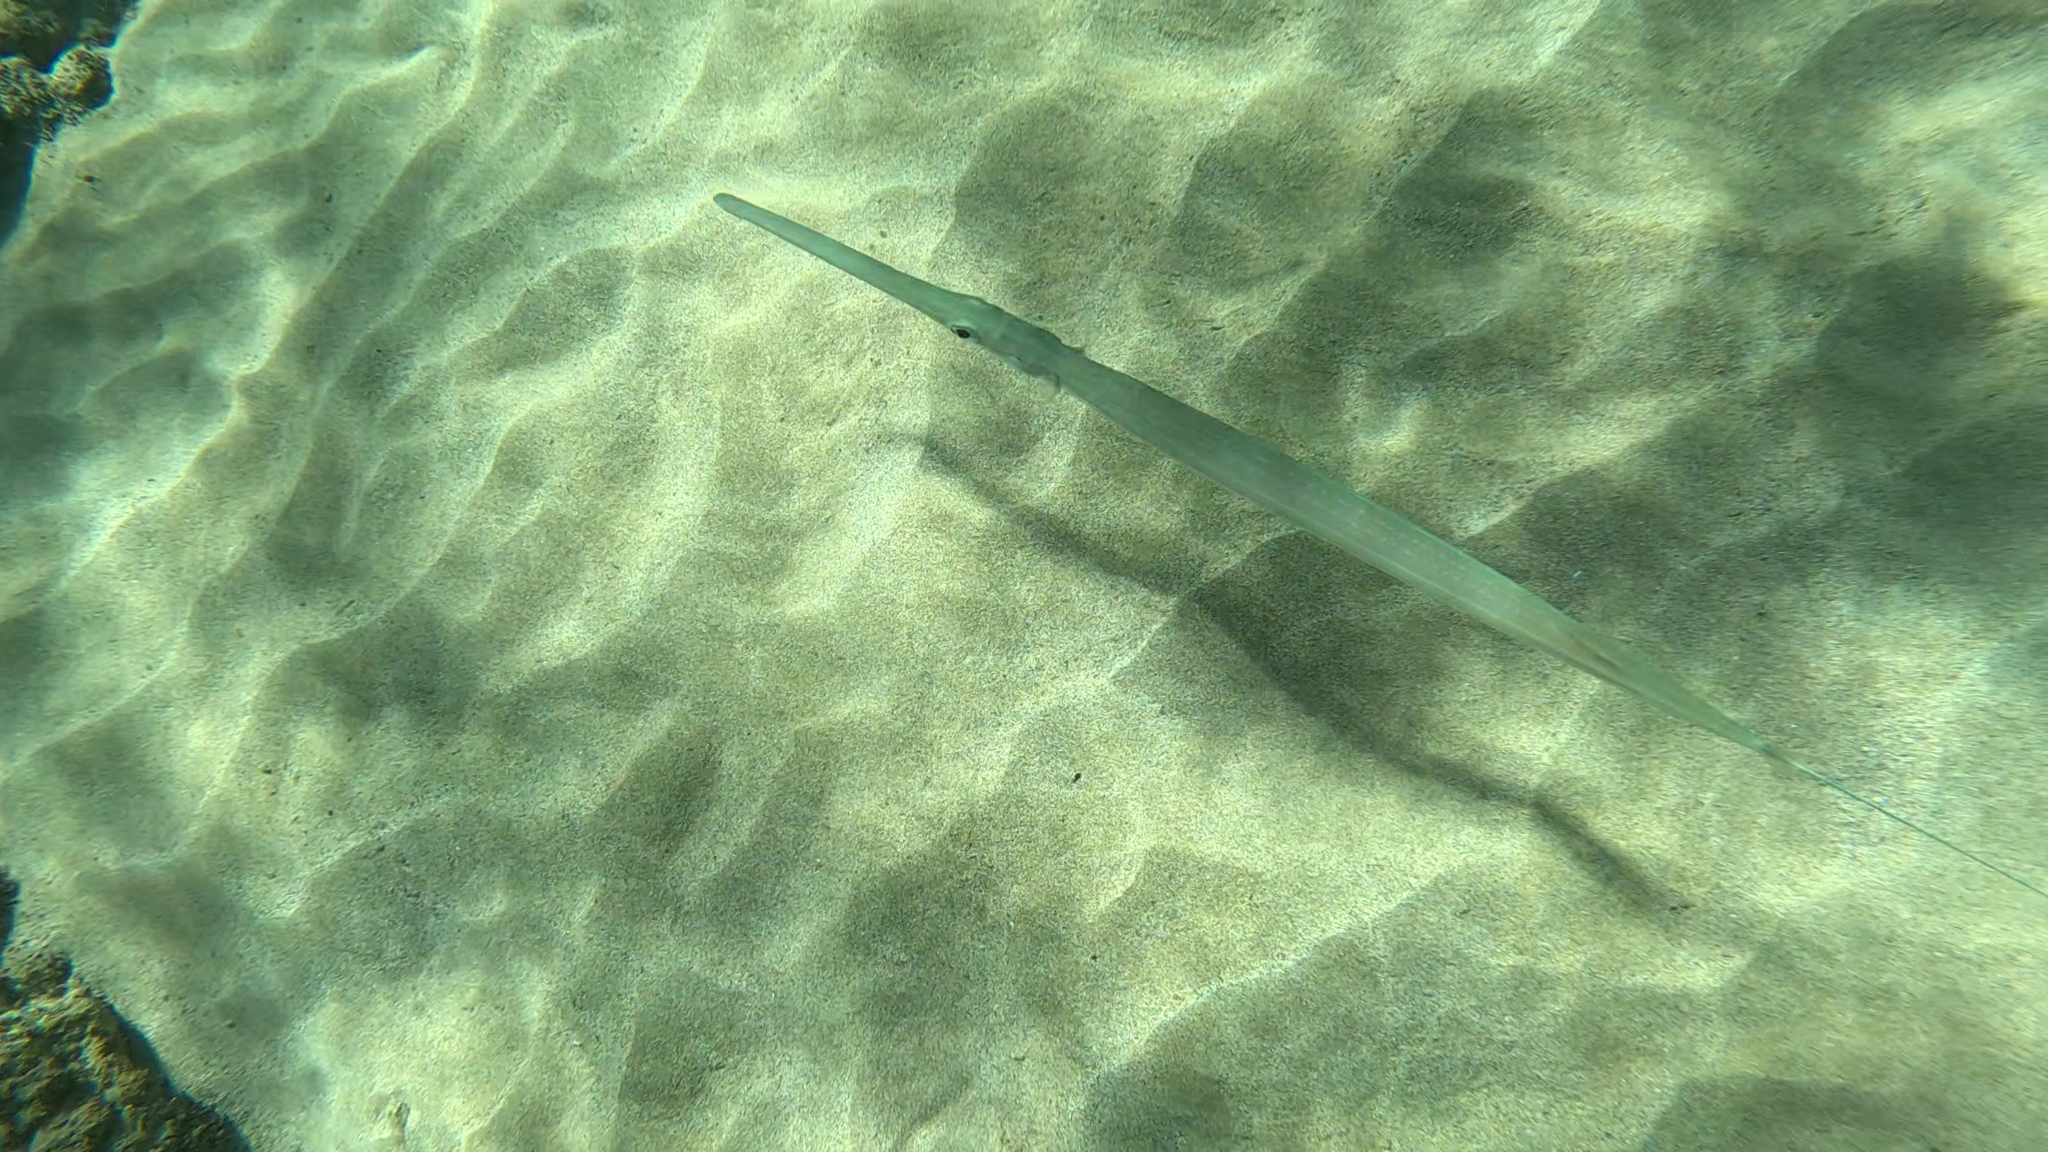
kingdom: Animalia
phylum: Chordata
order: Syngnathiformes
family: Fistulariidae
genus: Fistularia
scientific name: Fistularia commersonii
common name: Bluespotted cornetfish
